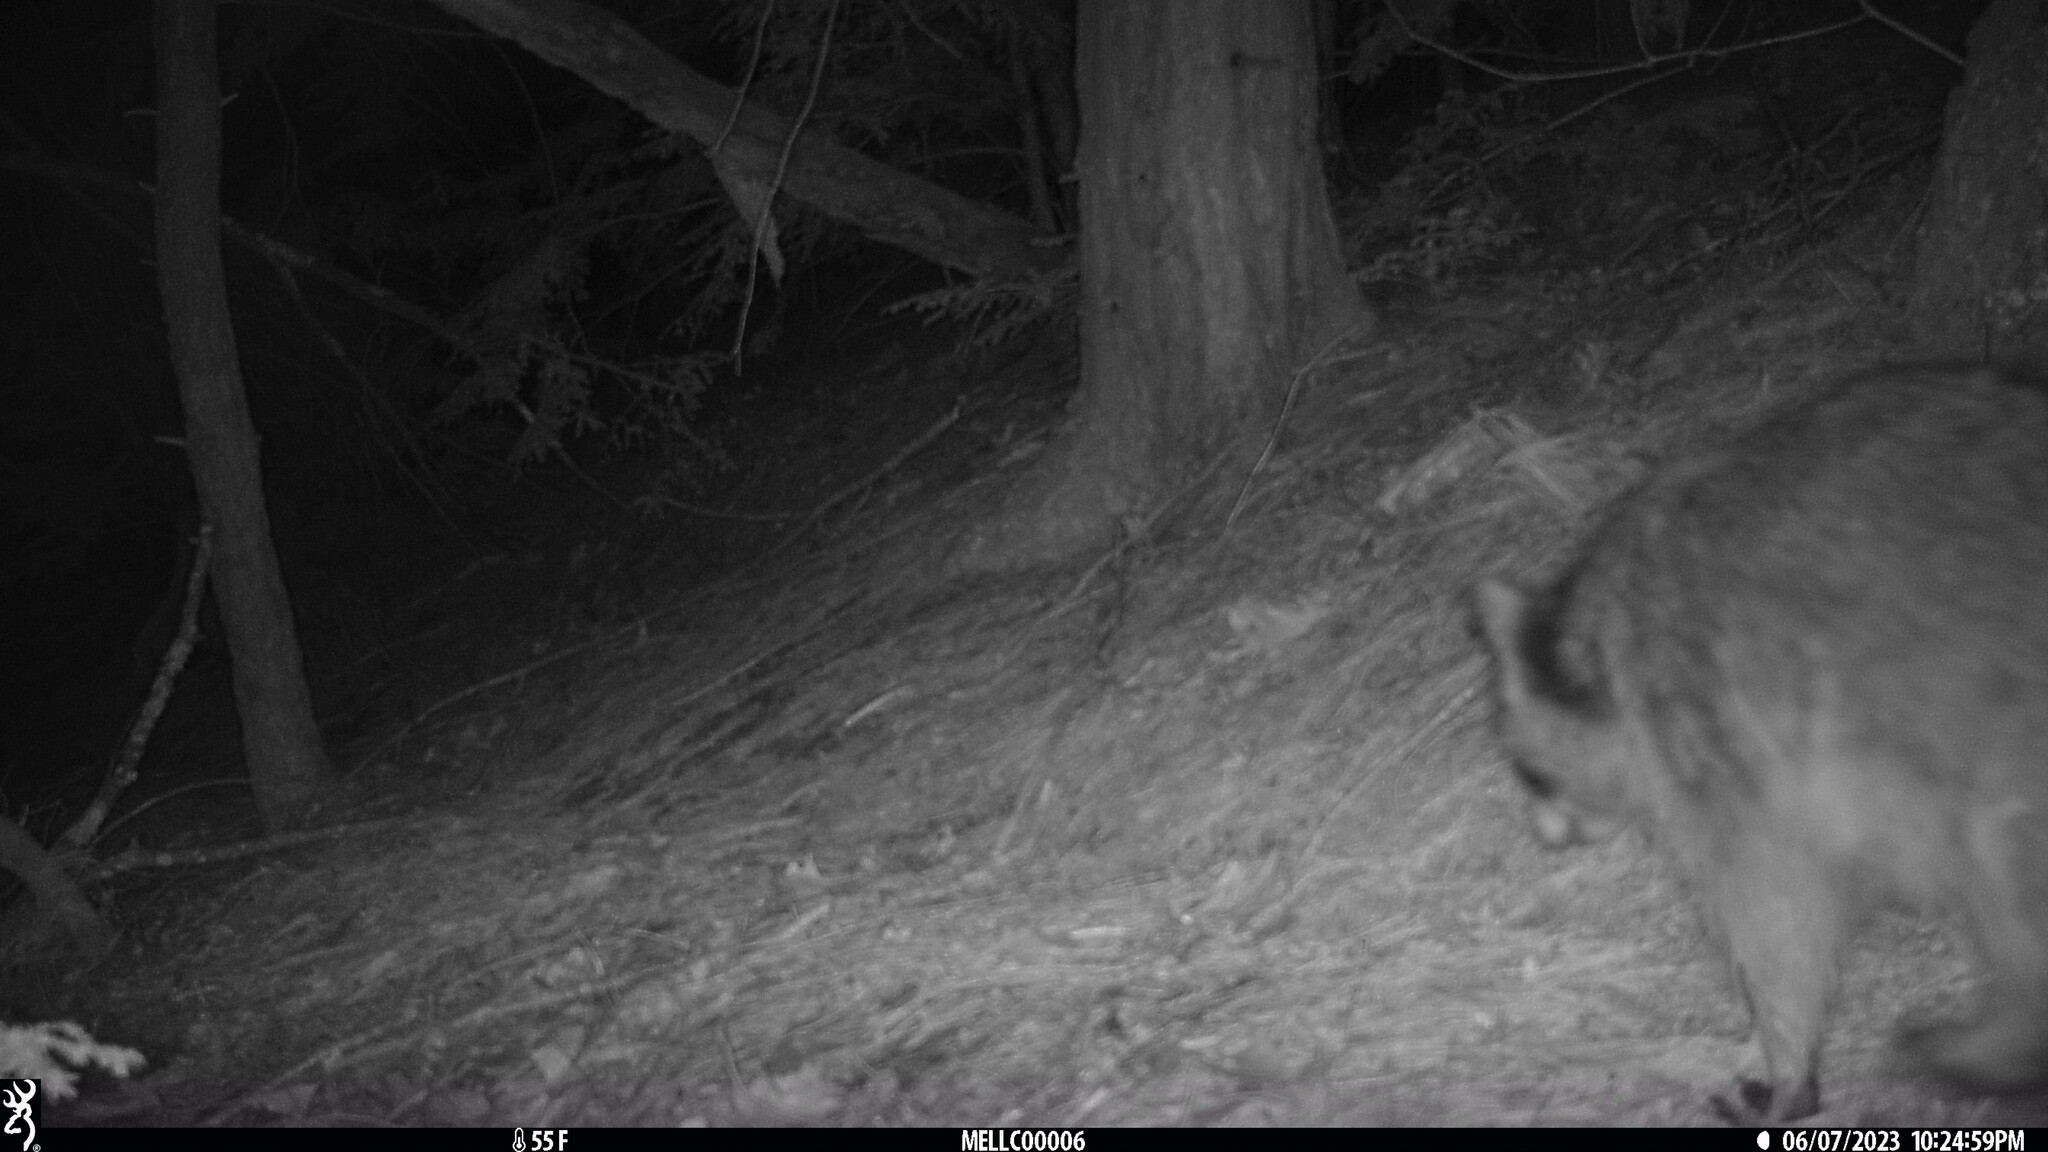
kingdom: Animalia
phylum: Chordata
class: Mammalia
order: Carnivora
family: Procyonidae
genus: Procyon
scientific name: Procyon lotor
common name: Raccoon
